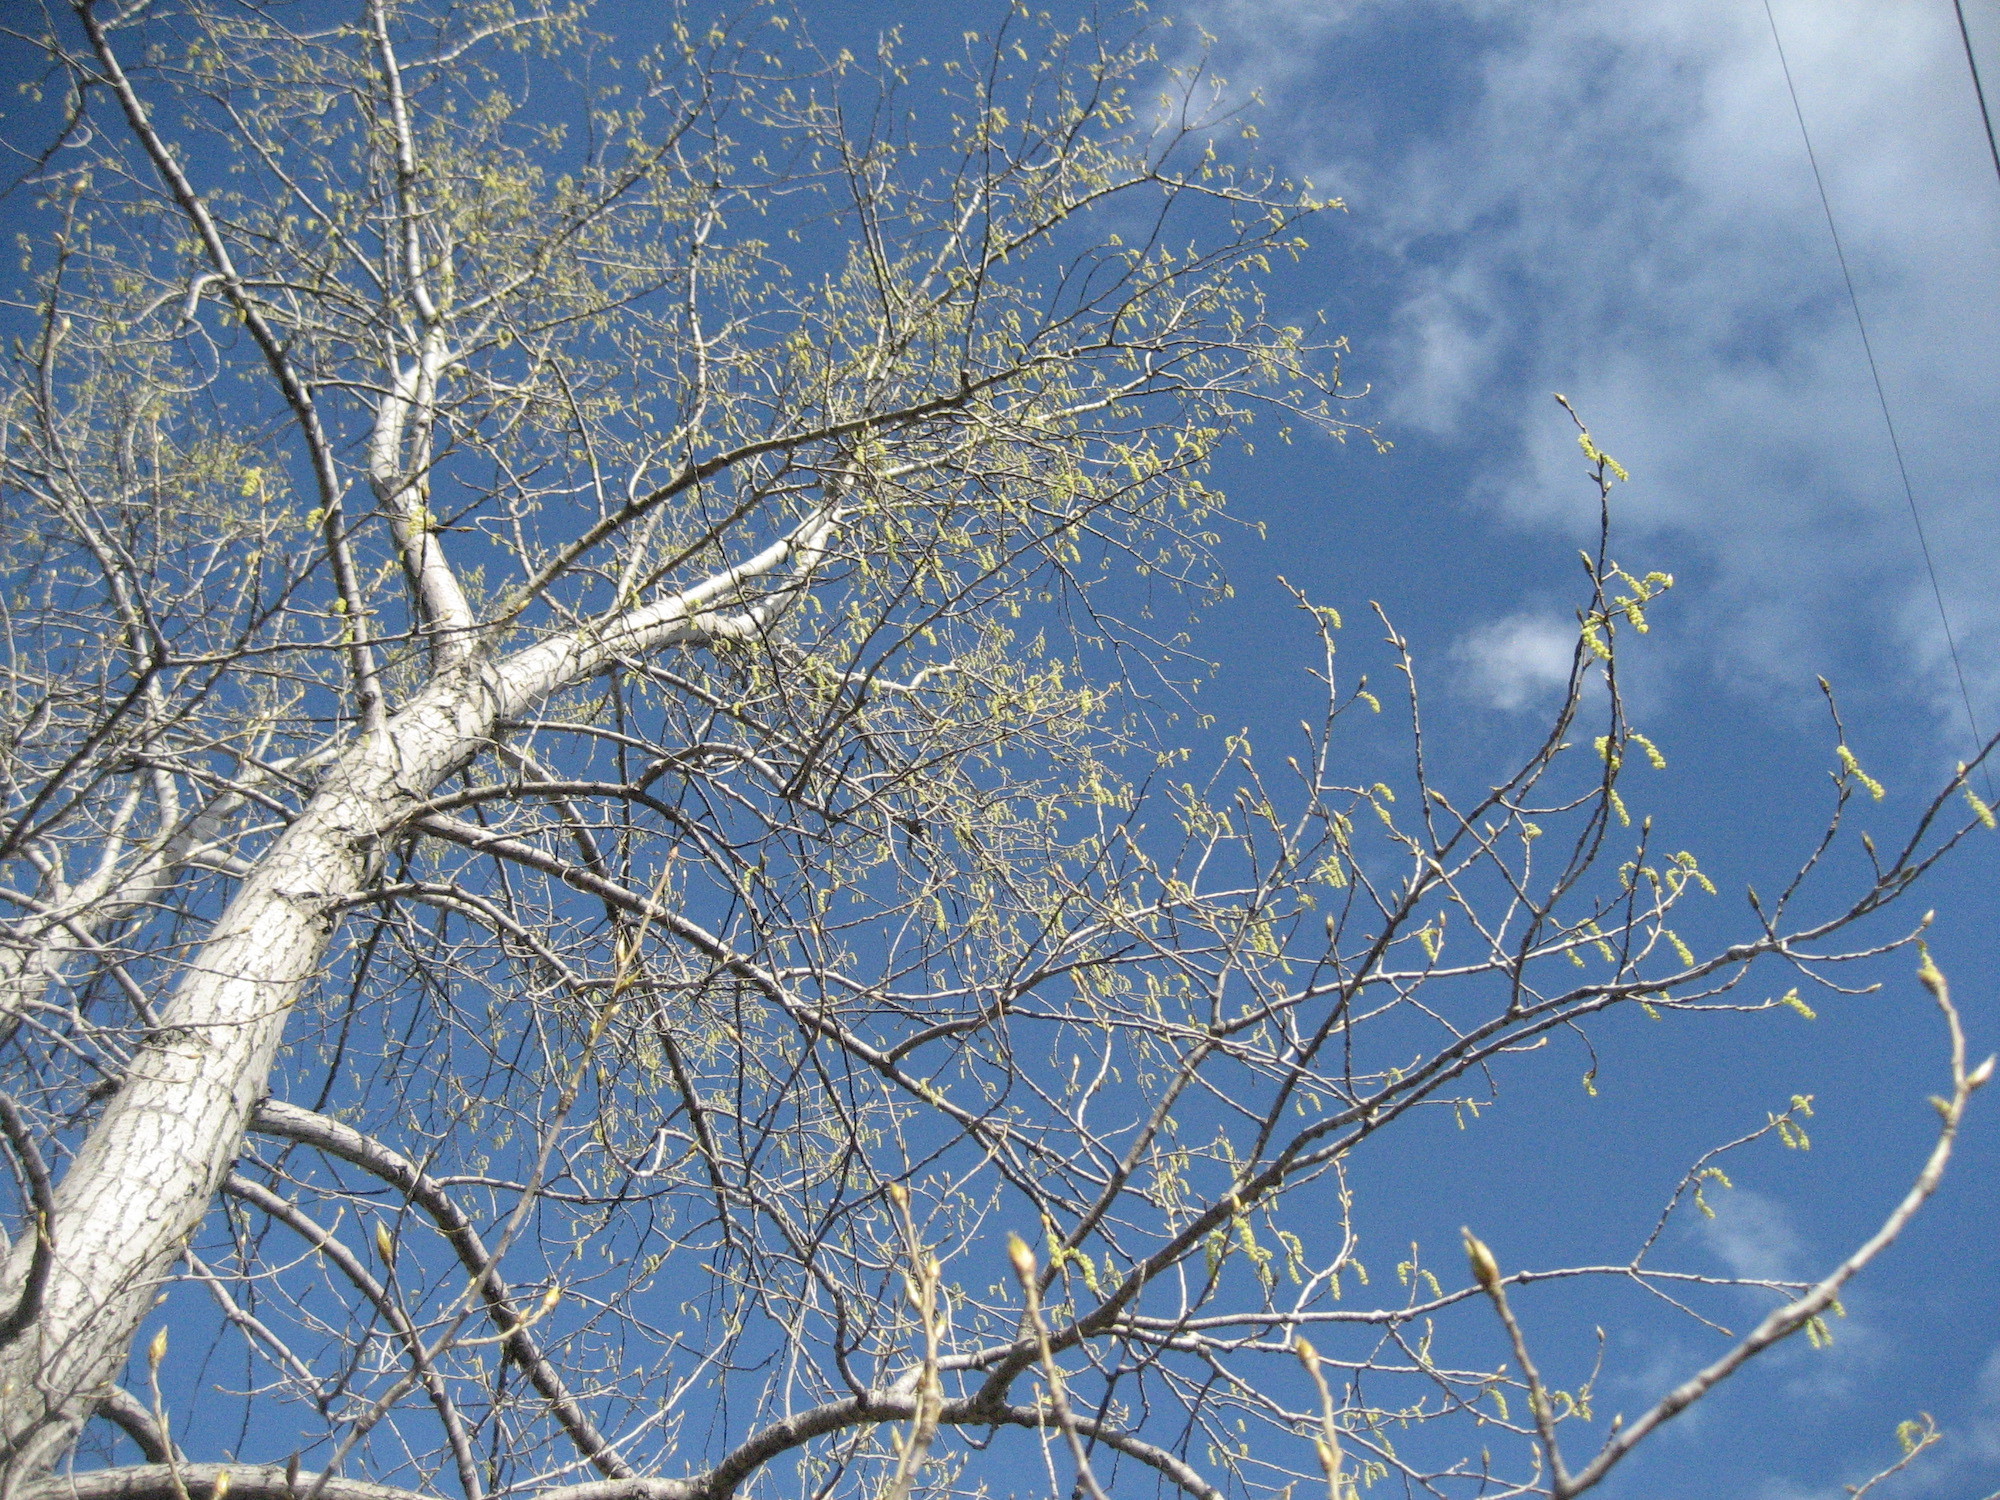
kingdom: Plantae
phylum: Tracheophyta
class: Magnoliopsida
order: Malpighiales
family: Salicaceae
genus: Populus
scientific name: Populus deltoides
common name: Eastern cottonwood
